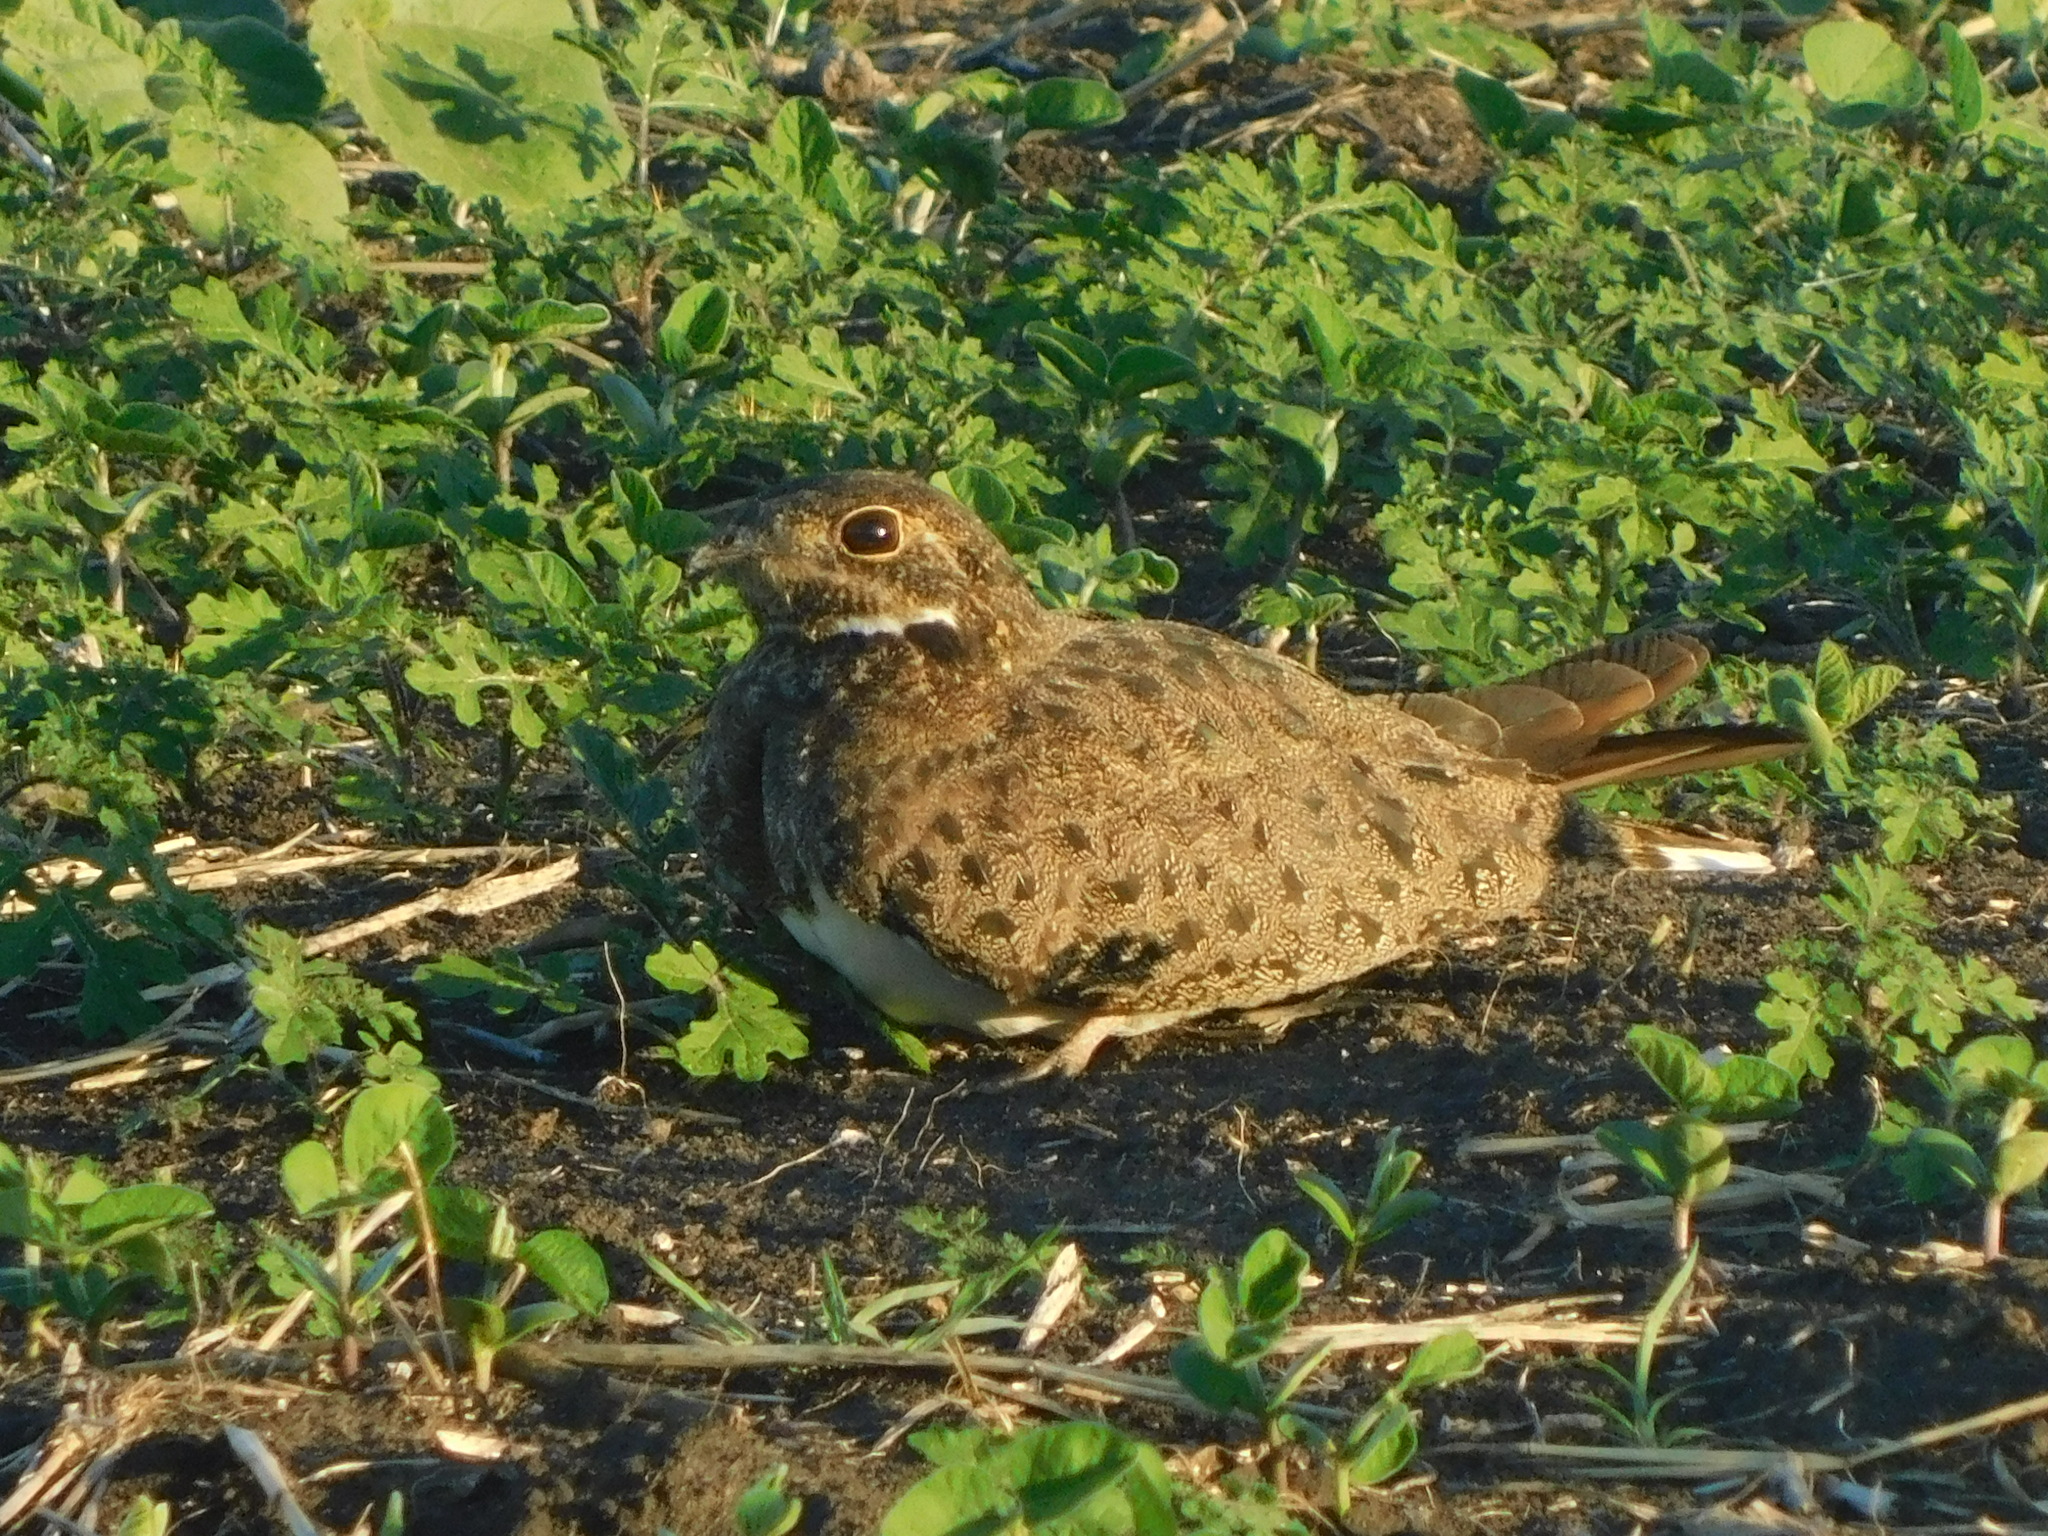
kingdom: Animalia
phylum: Chordata
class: Aves
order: Caprimulgiformes
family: Caprimulgidae
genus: Chordeiles
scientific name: Chordeiles nacunda
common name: Nacunda nighthawk
